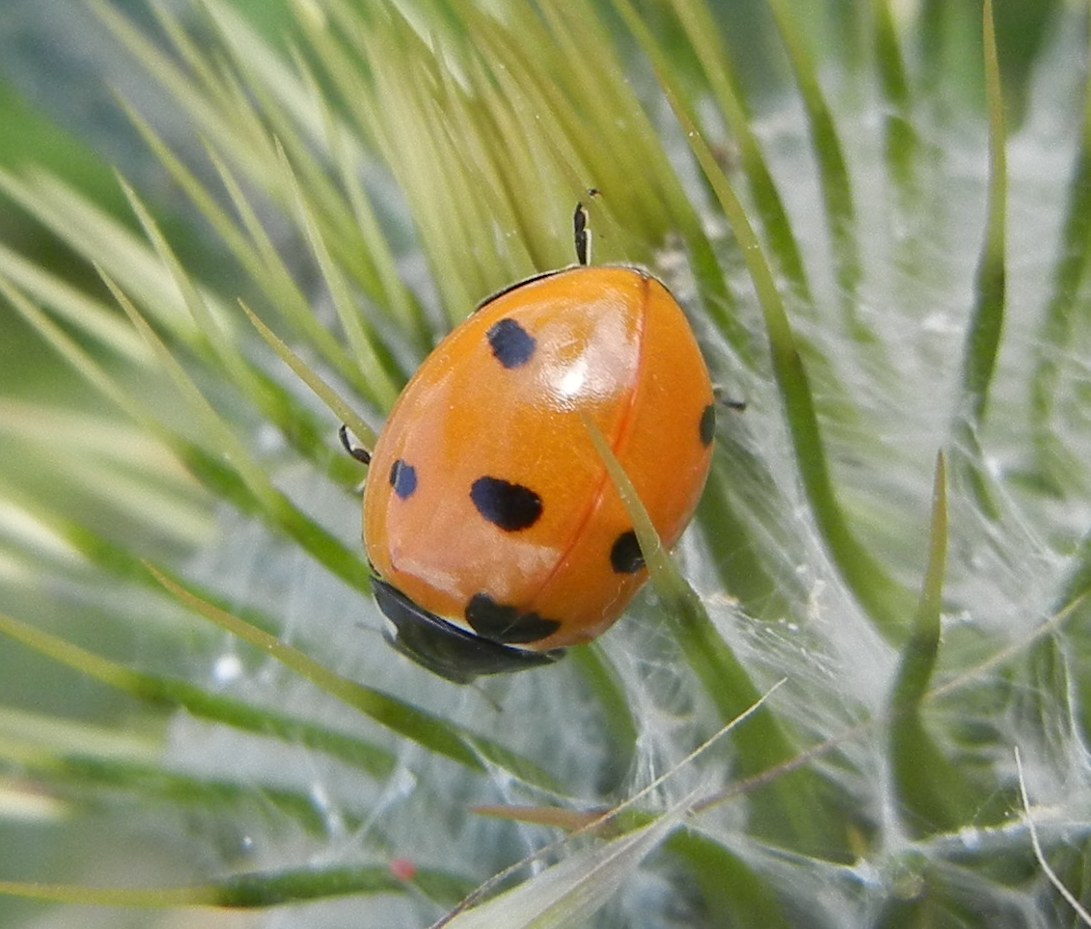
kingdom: Animalia
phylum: Arthropoda
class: Insecta
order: Coleoptera
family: Coccinellidae
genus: Coccinella
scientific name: Coccinella septempunctata
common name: Sevenspotted lady beetle
